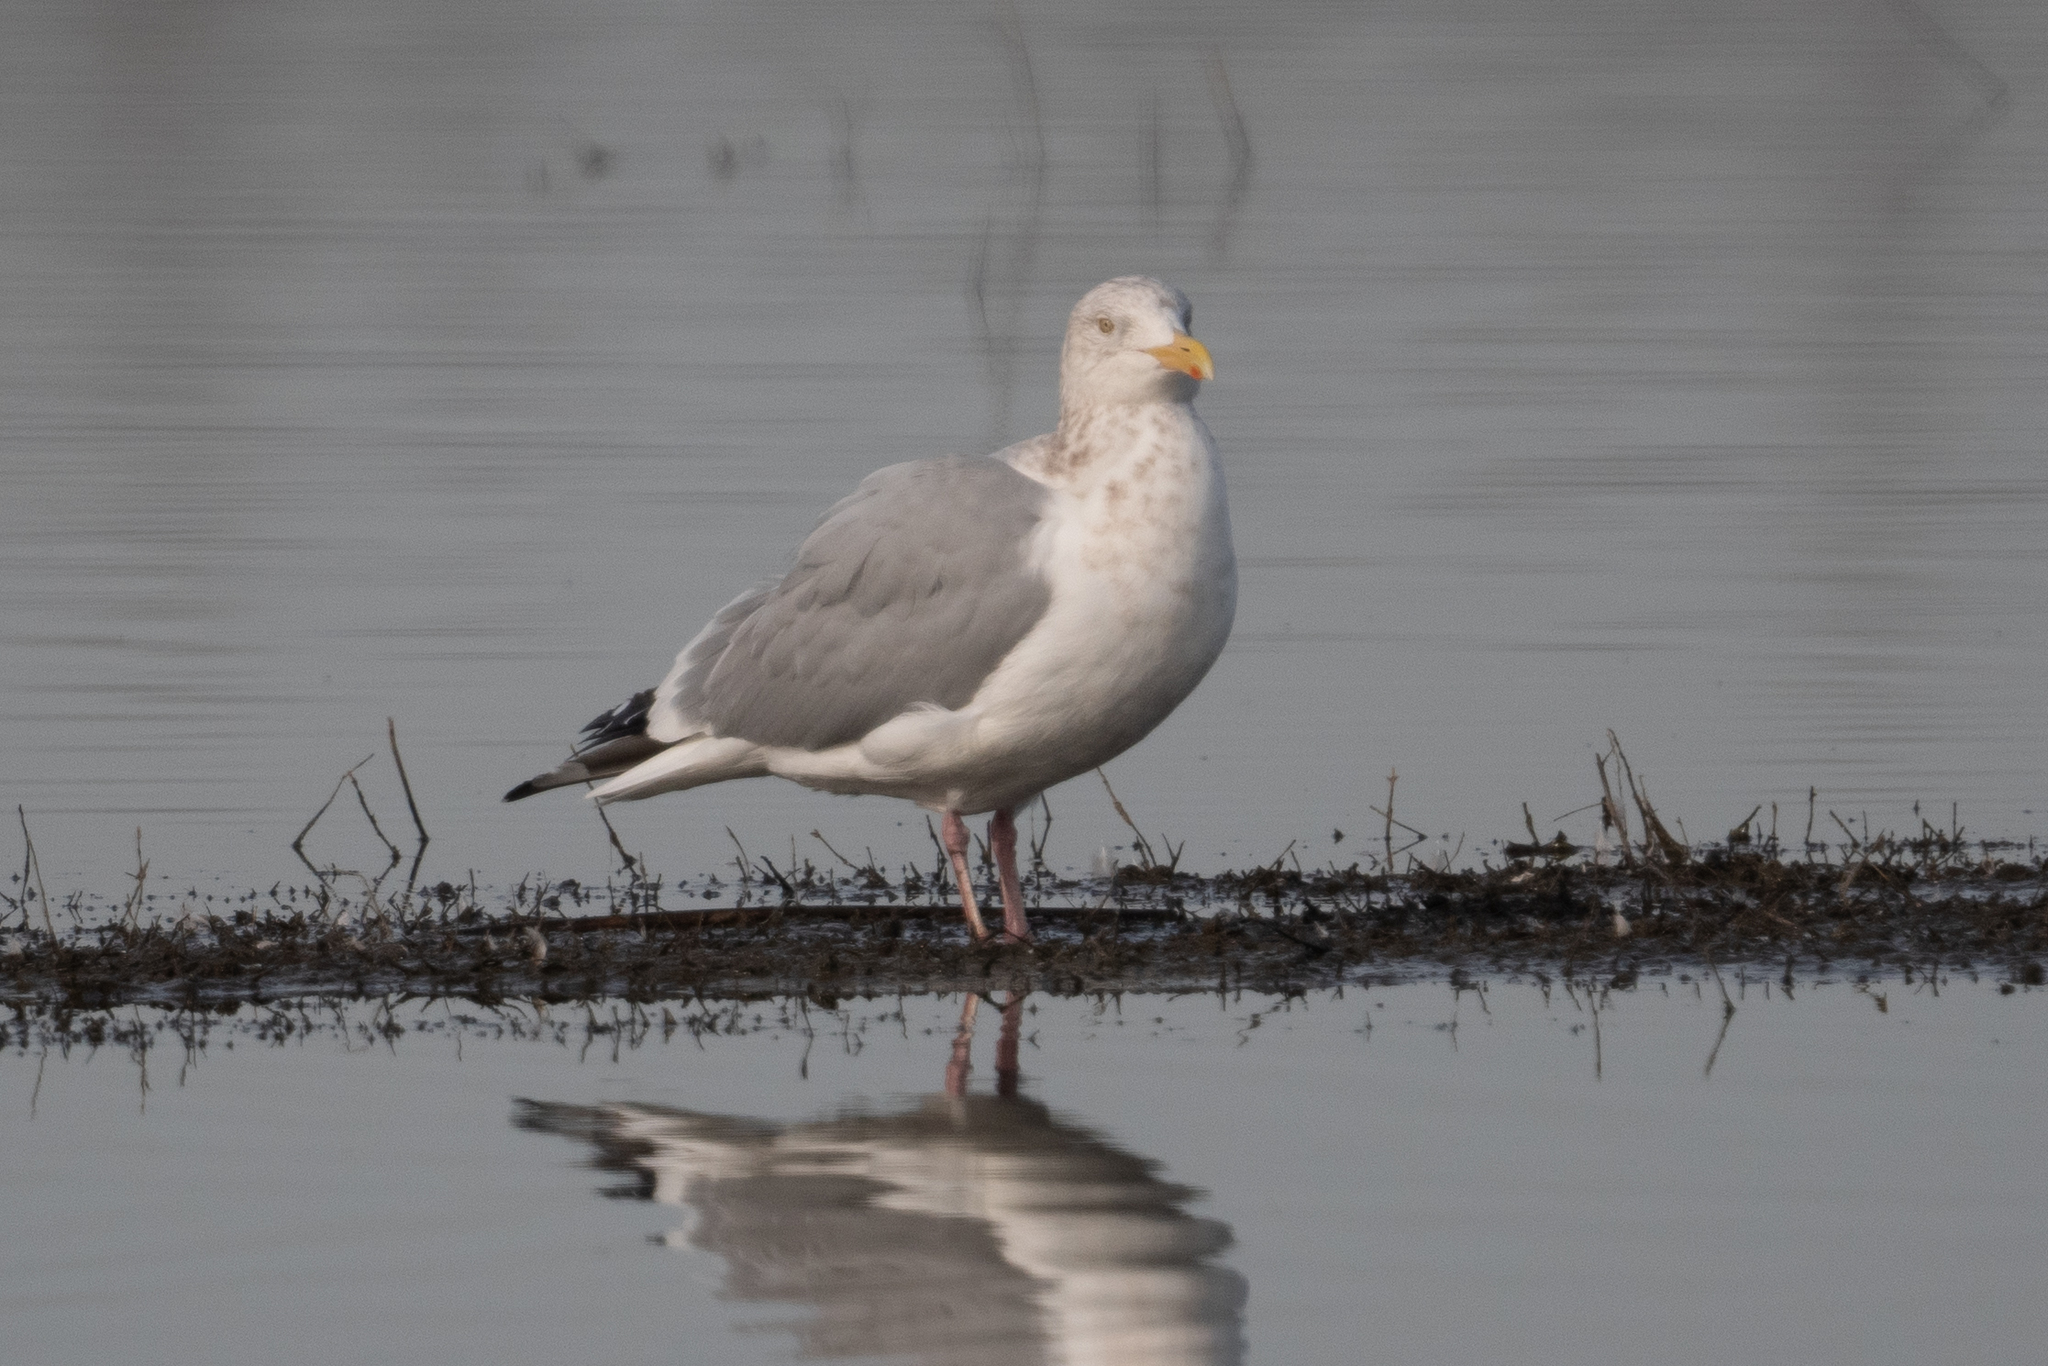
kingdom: Animalia
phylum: Chordata
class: Aves
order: Charadriiformes
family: Laridae
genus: Larus
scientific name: Larus argentatus
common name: Herring gull
